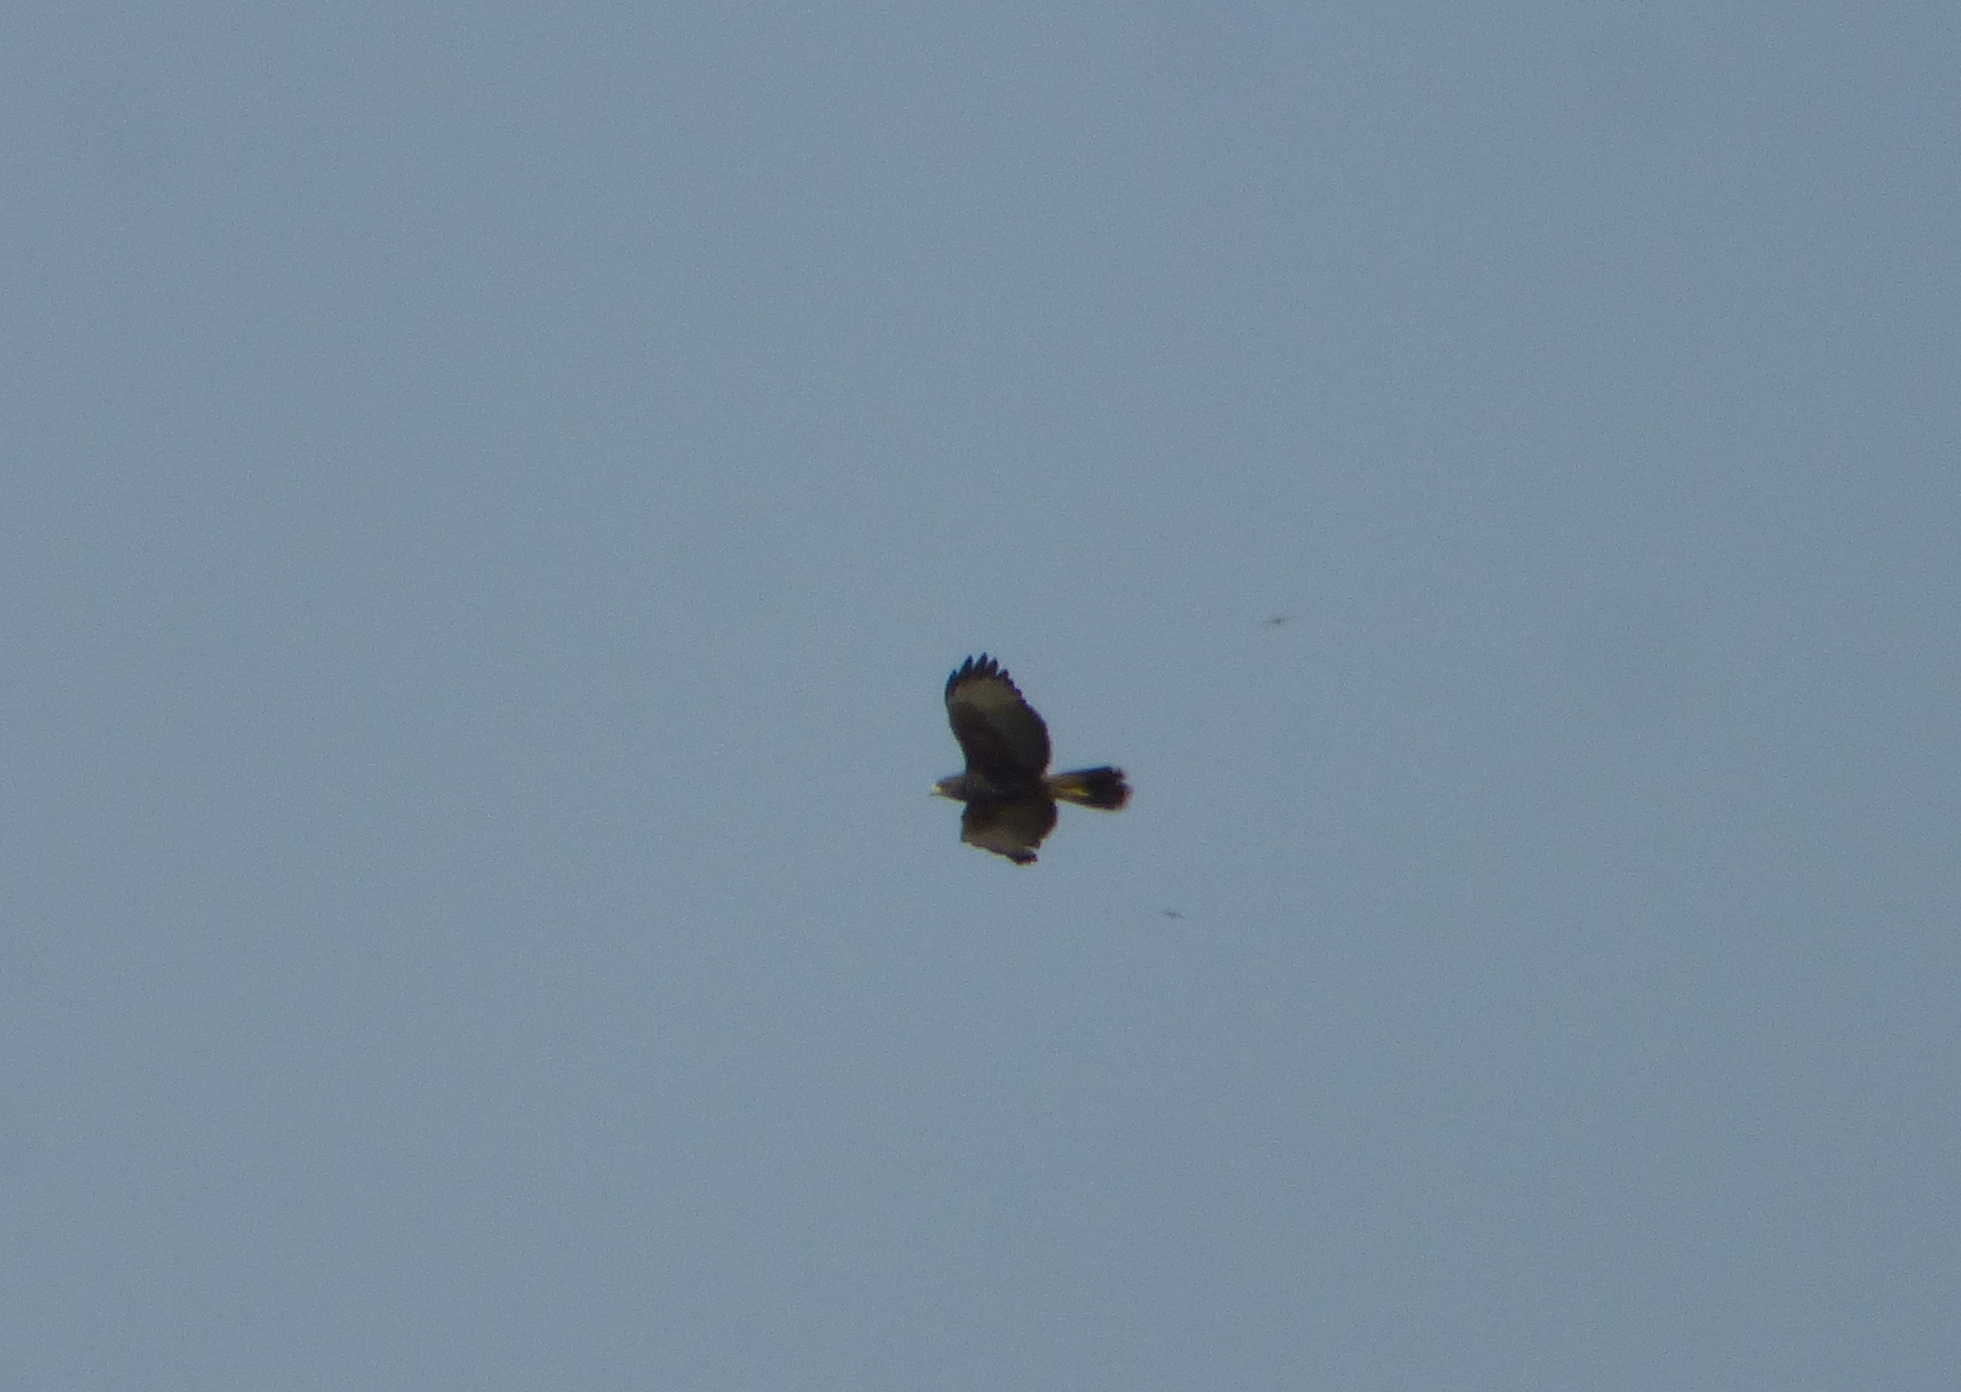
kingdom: Animalia
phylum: Chordata
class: Aves
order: Accipitriformes
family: Accipitridae
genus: Parabuteo
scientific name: Parabuteo unicinctus
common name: Harris's hawk
